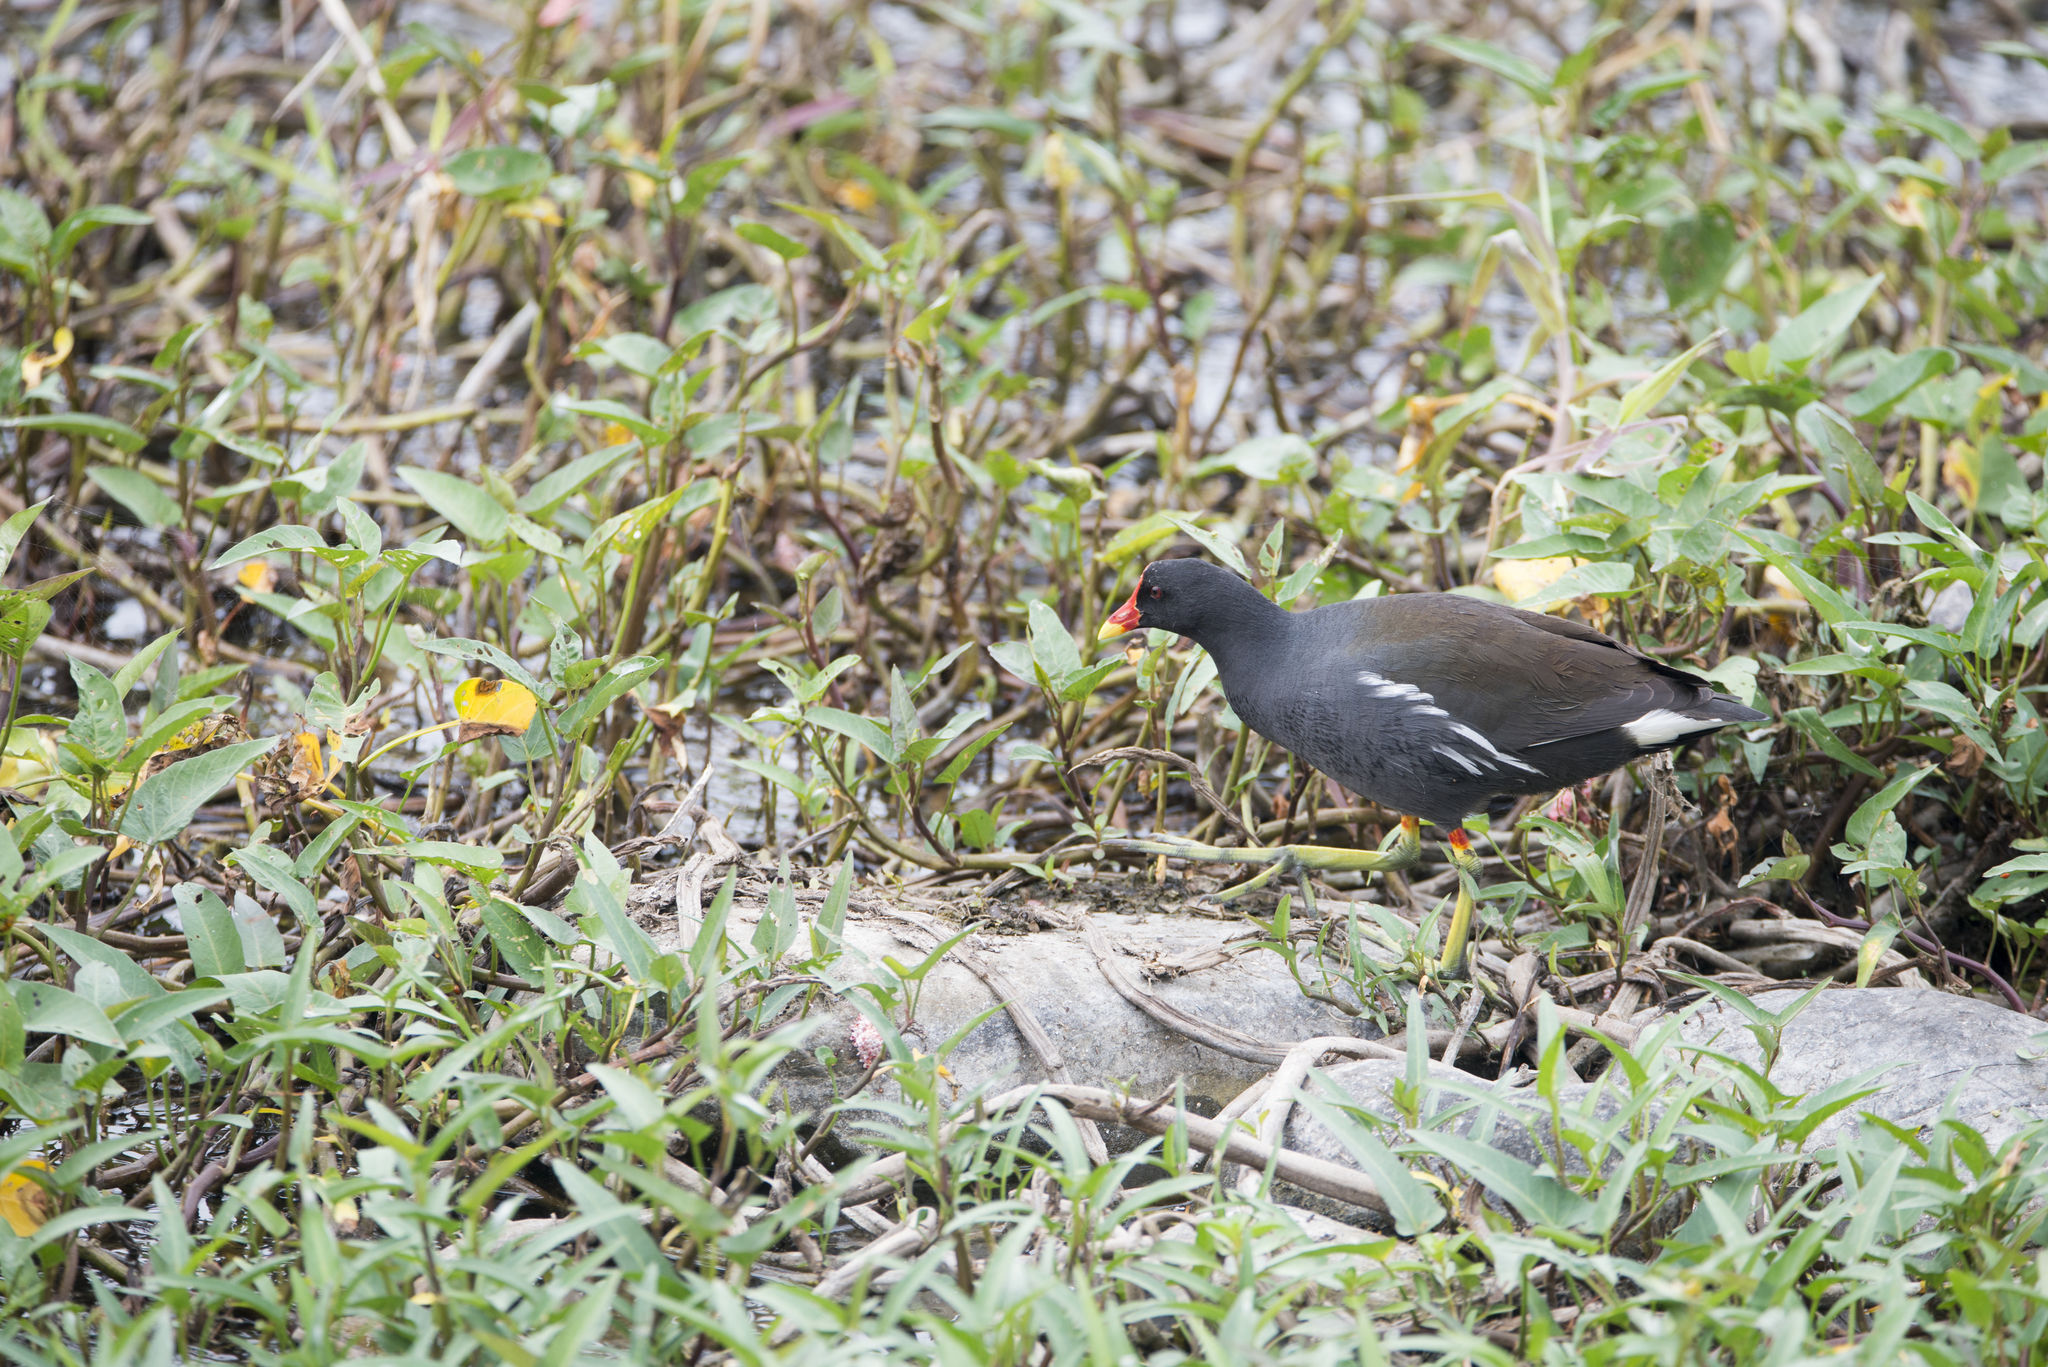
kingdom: Animalia
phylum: Chordata
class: Aves
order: Gruiformes
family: Rallidae
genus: Gallinula
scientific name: Gallinula chloropus
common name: Common moorhen
